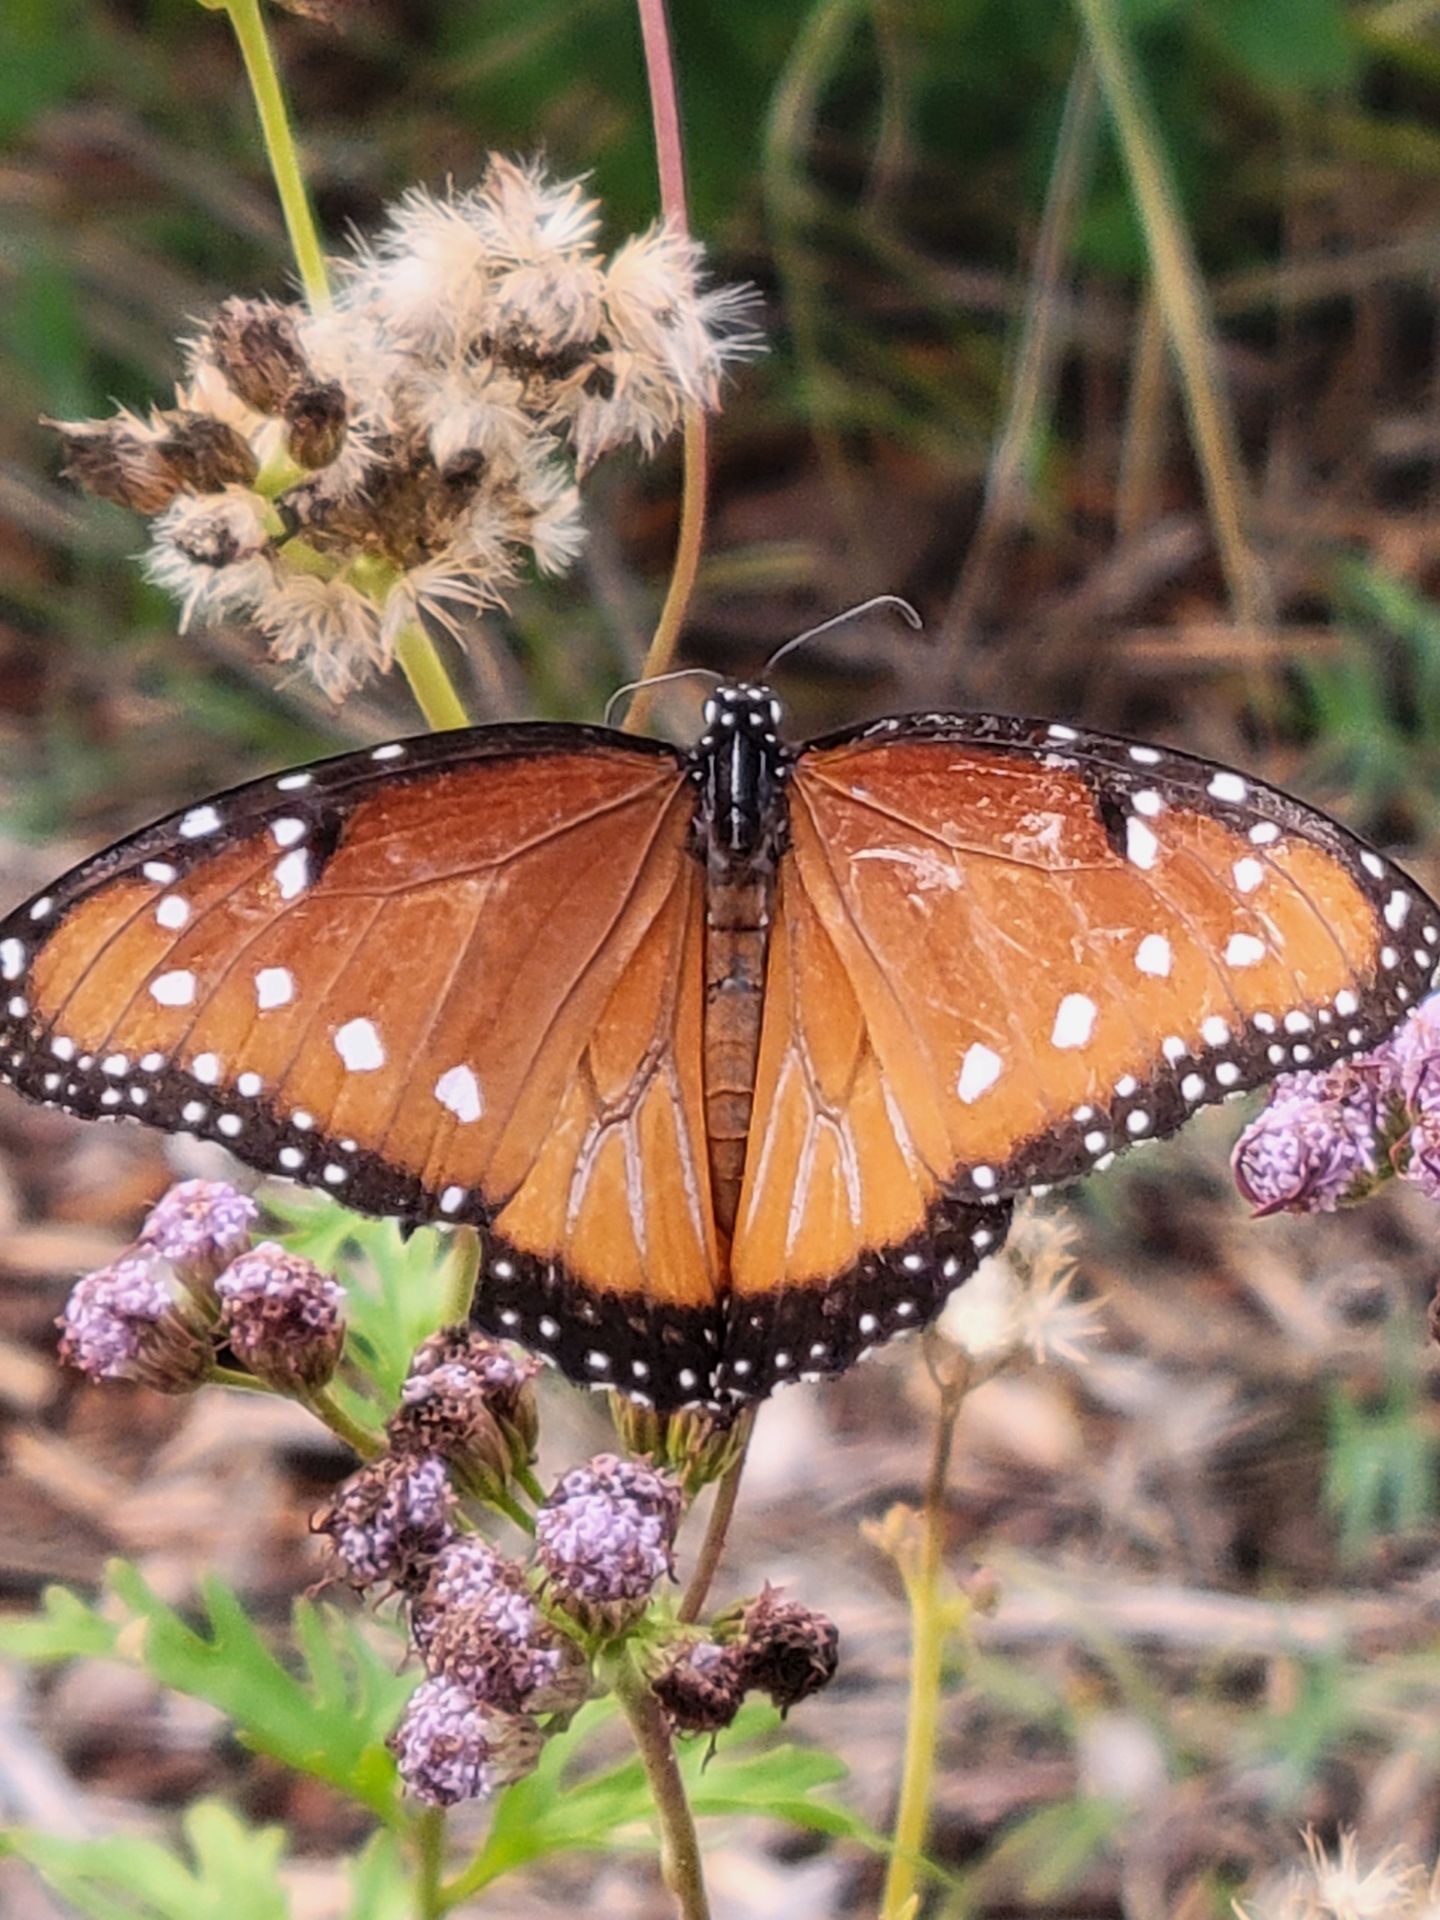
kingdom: Animalia
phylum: Arthropoda
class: Insecta
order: Lepidoptera
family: Nymphalidae
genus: Danaus
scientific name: Danaus gilippus
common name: Queen
